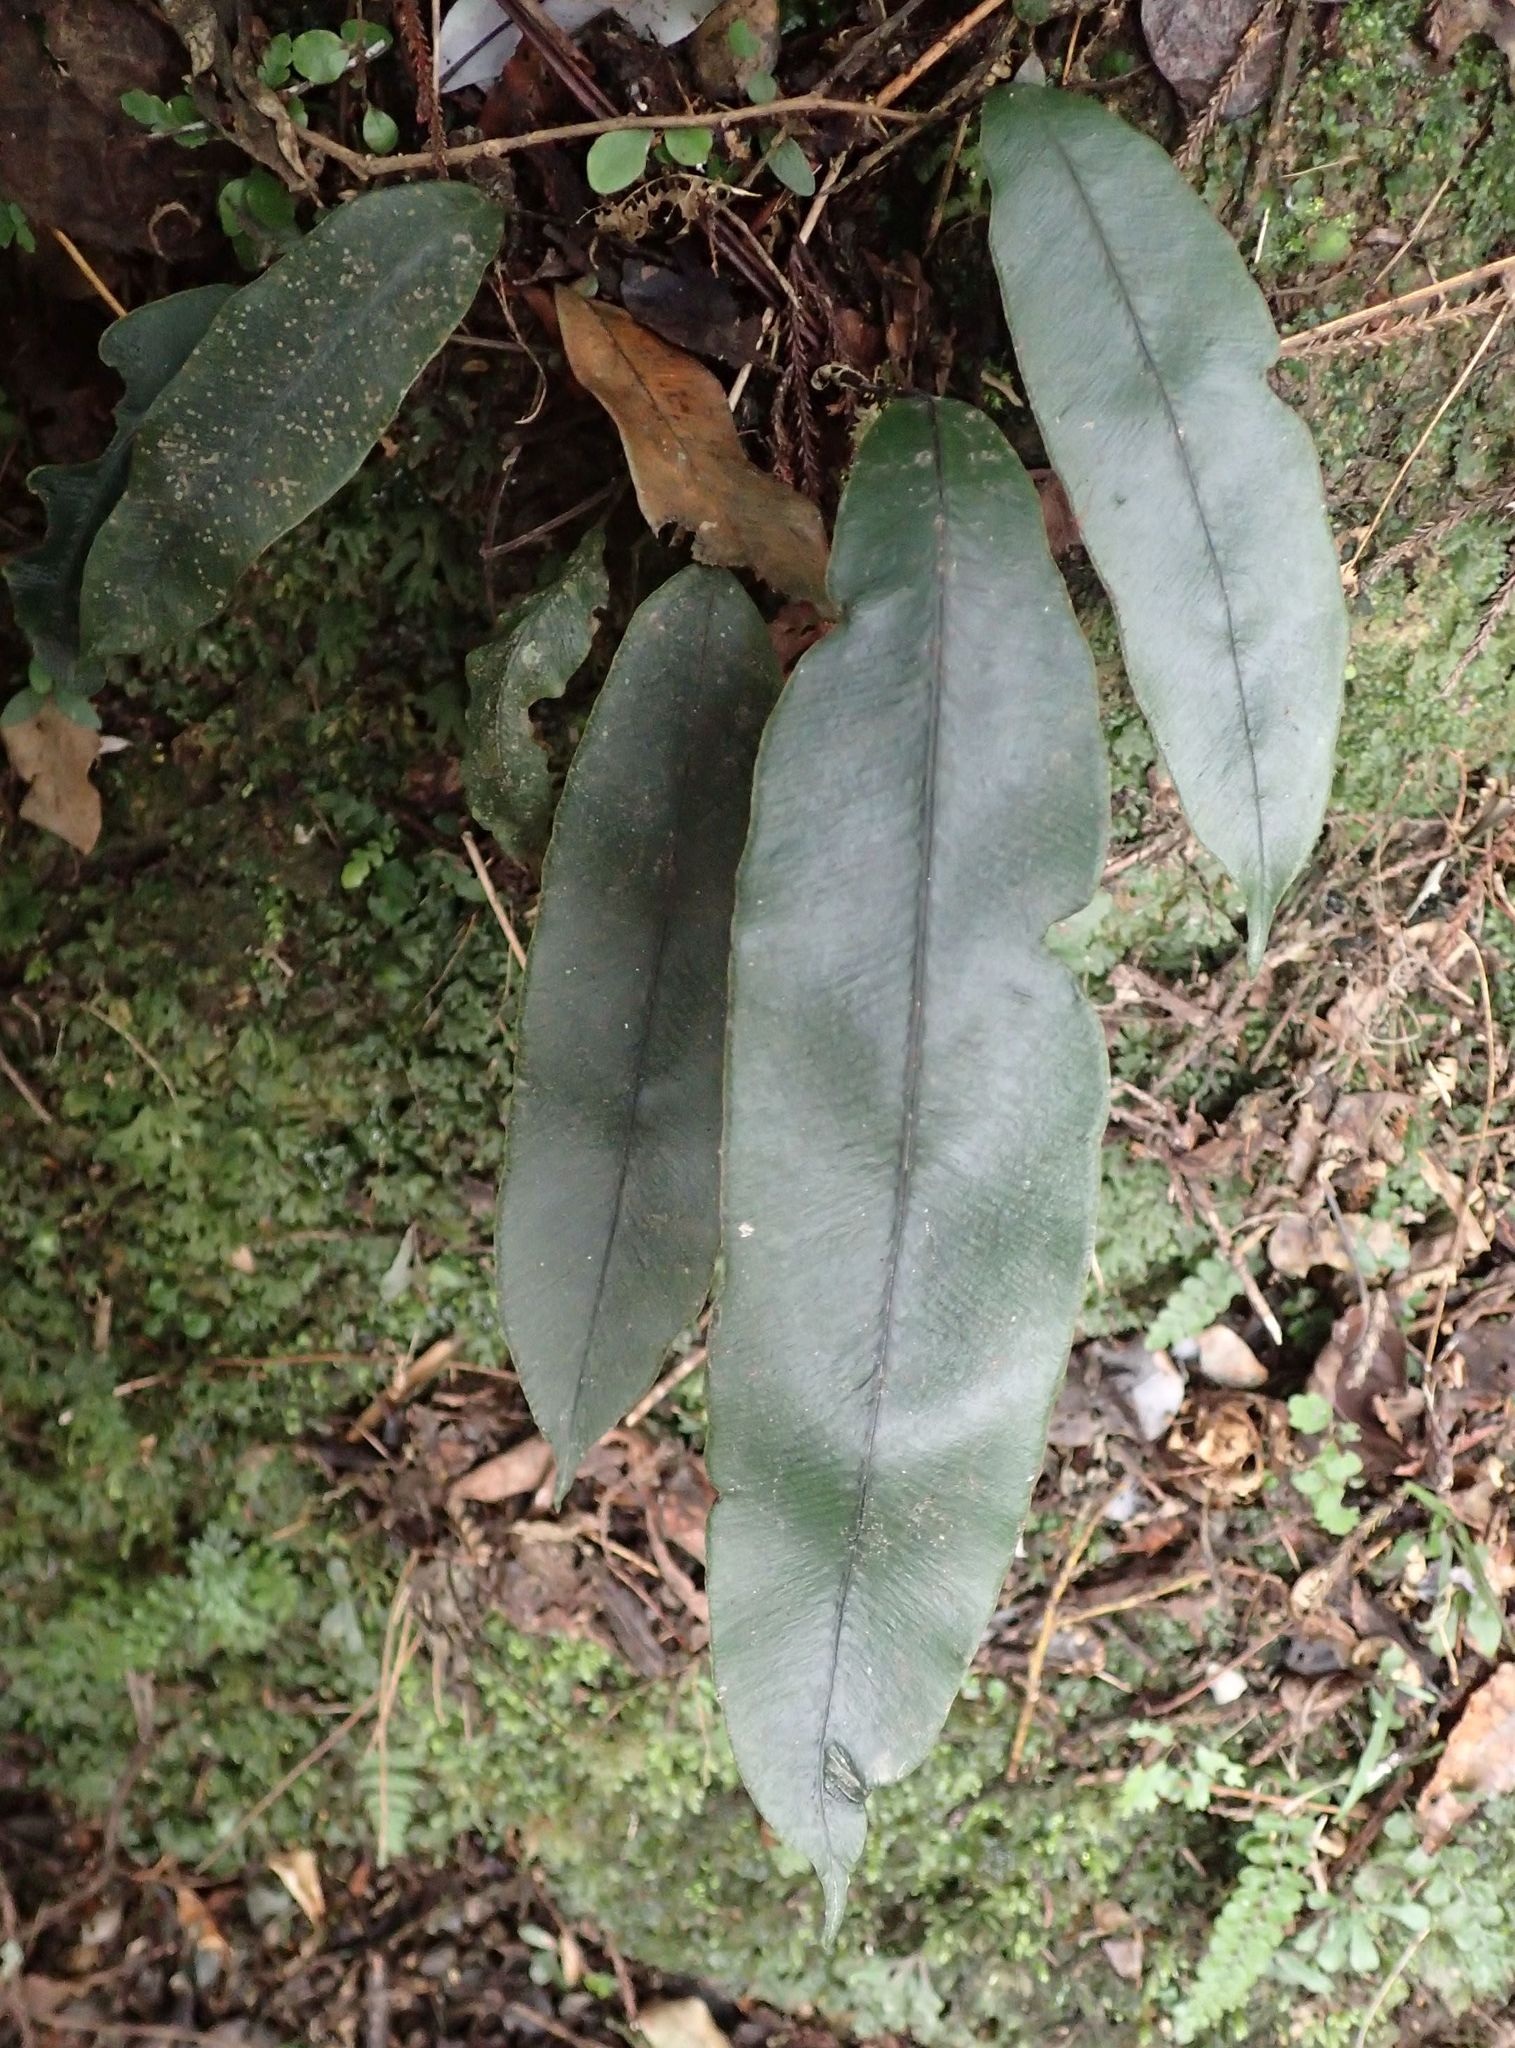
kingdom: Plantae
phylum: Tracheophyta
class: Polypodiopsida
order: Polypodiales
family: Blechnaceae
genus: Austroblechnum
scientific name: Austroblechnum colensoi
